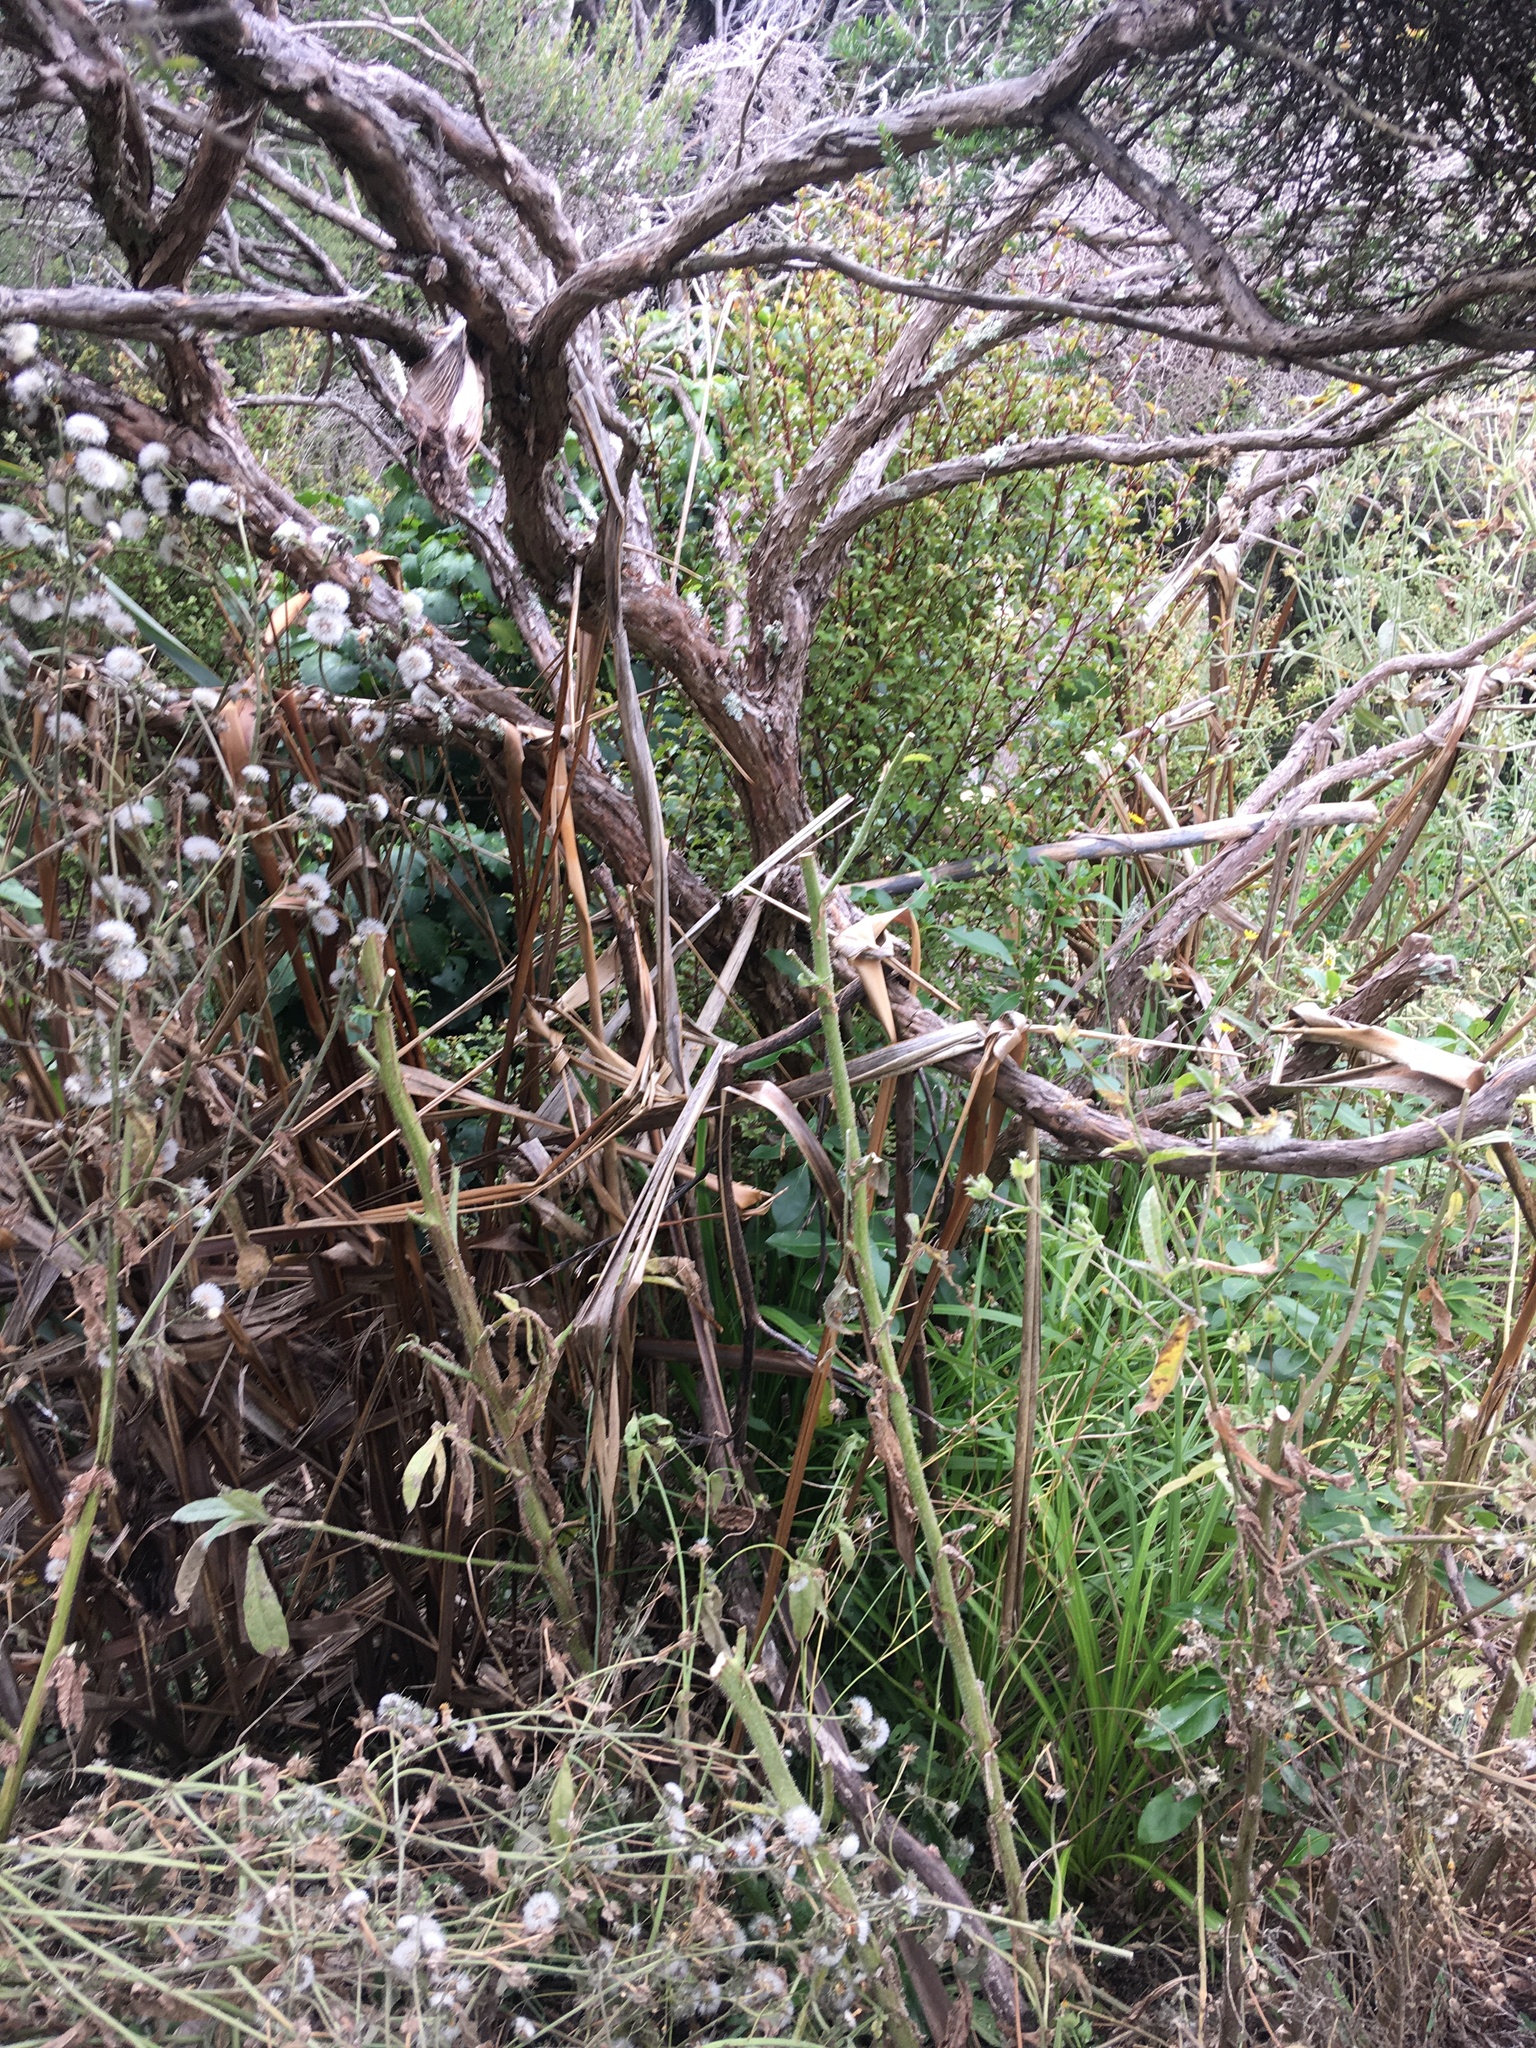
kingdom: Plantae
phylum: Tracheophyta
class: Magnoliopsida
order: Ericales
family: Primulaceae
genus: Myrsine
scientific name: Myrsine australis
